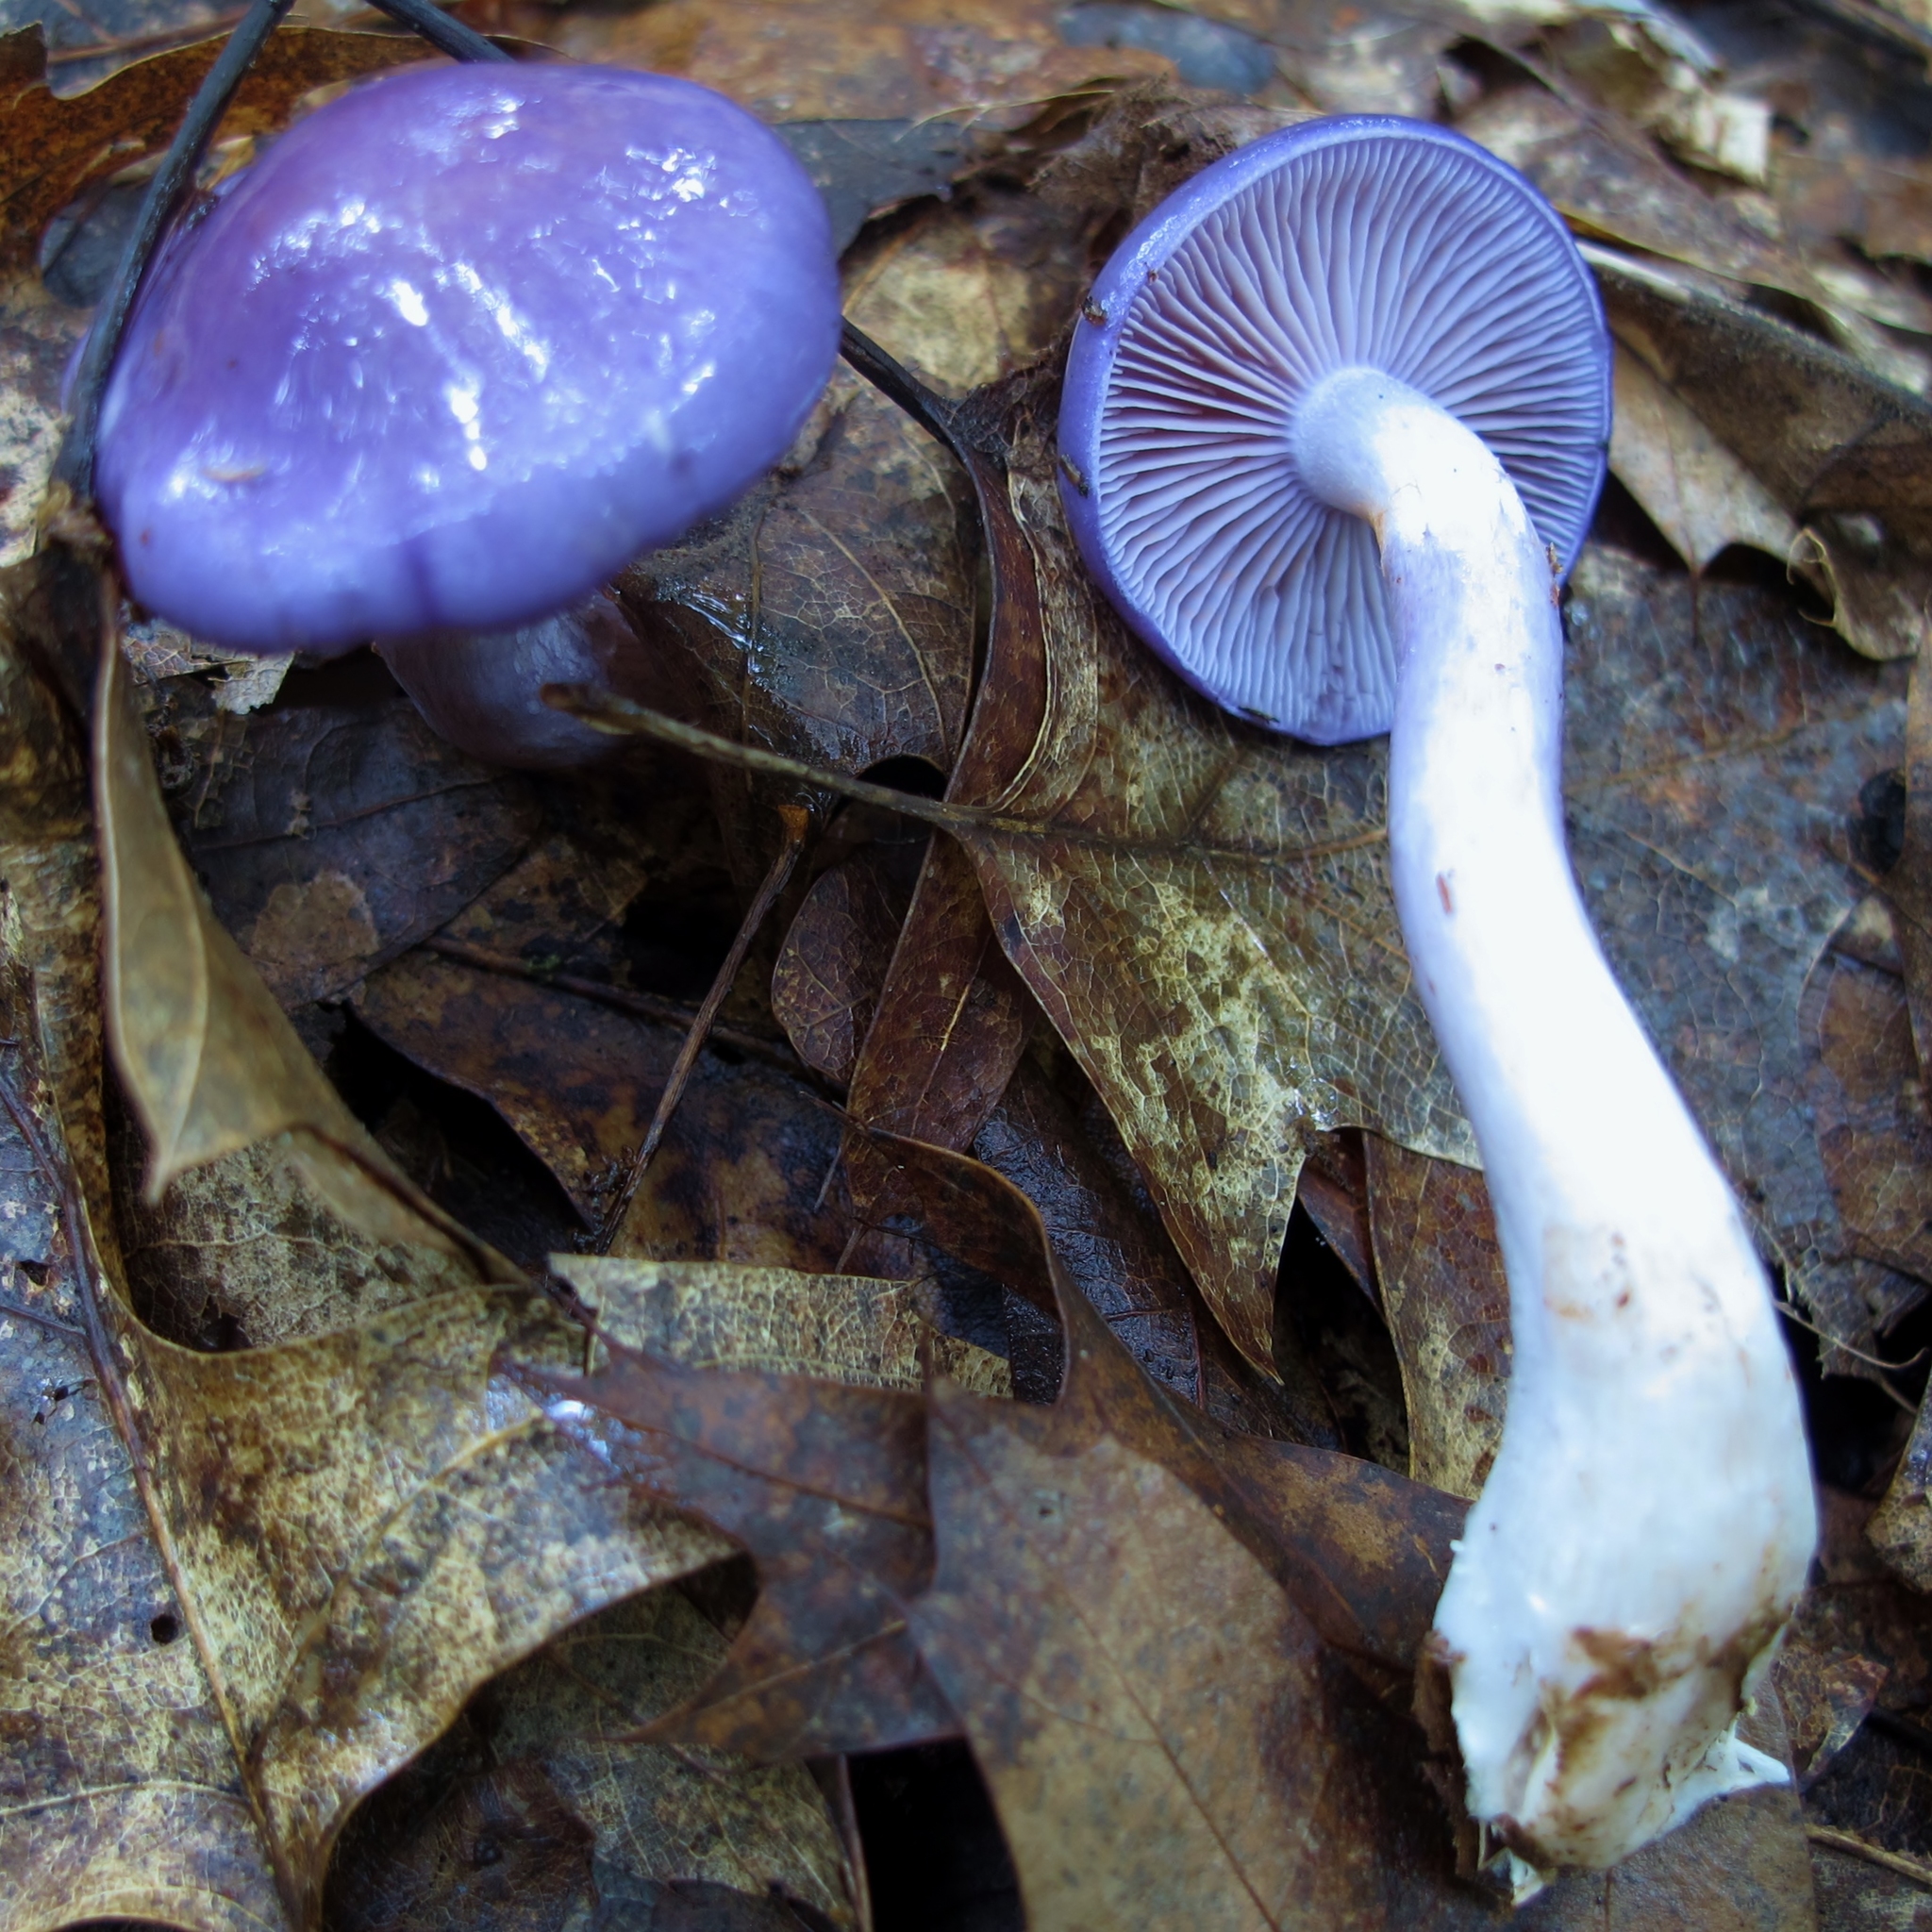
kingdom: Fungi
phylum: Basidiomycota
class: Agaricomycetes
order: Agaricales
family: Cortinariaceae
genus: Cortinarius
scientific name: Cortinarius iodes
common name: Viscid violet cort
